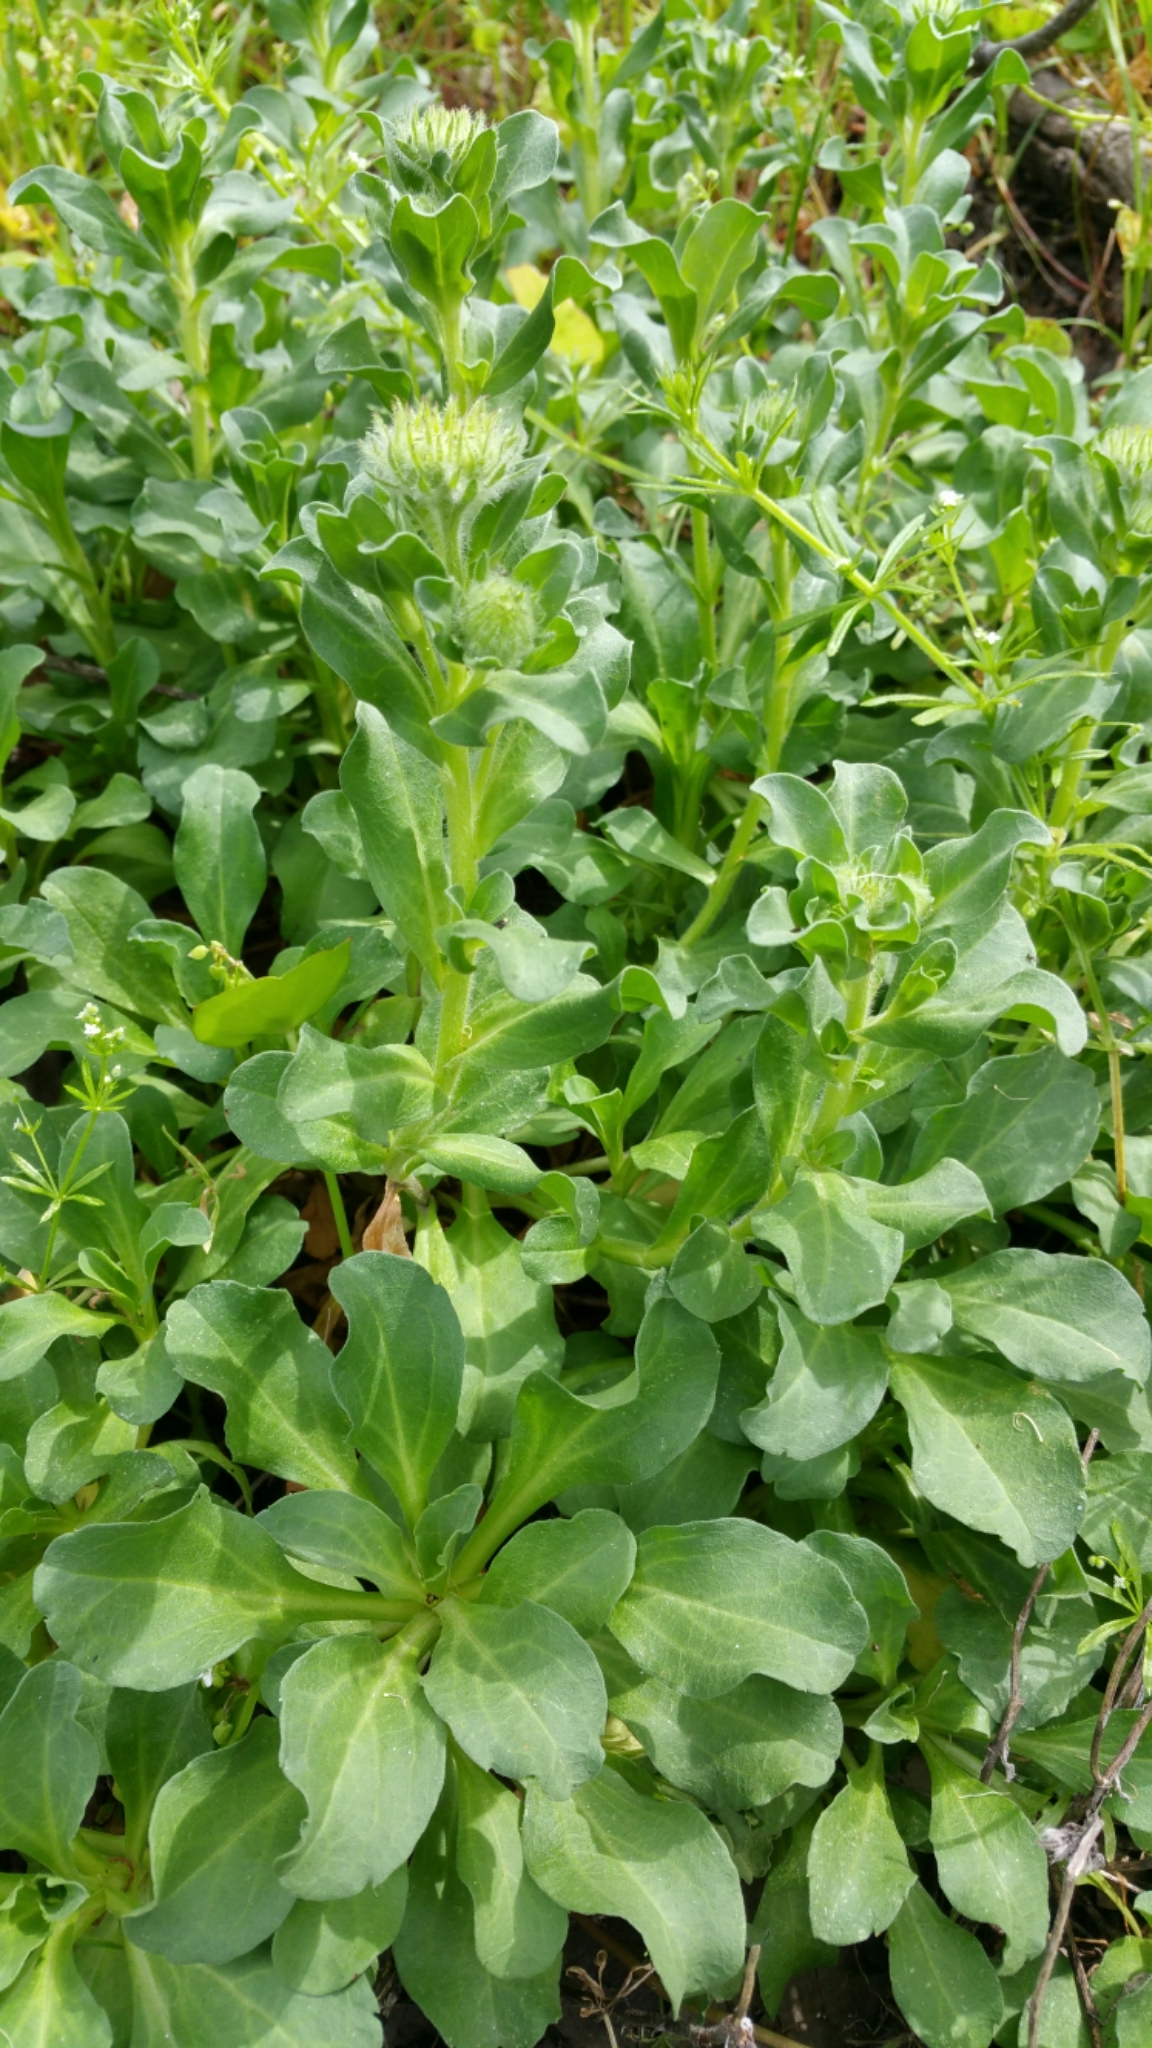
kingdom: Plantae
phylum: Tracheophyta
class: Magnoliopsida
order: Asterales
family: Asteraceae
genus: Erigeron
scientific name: Erigeron glaucus
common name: Seaside daisy
